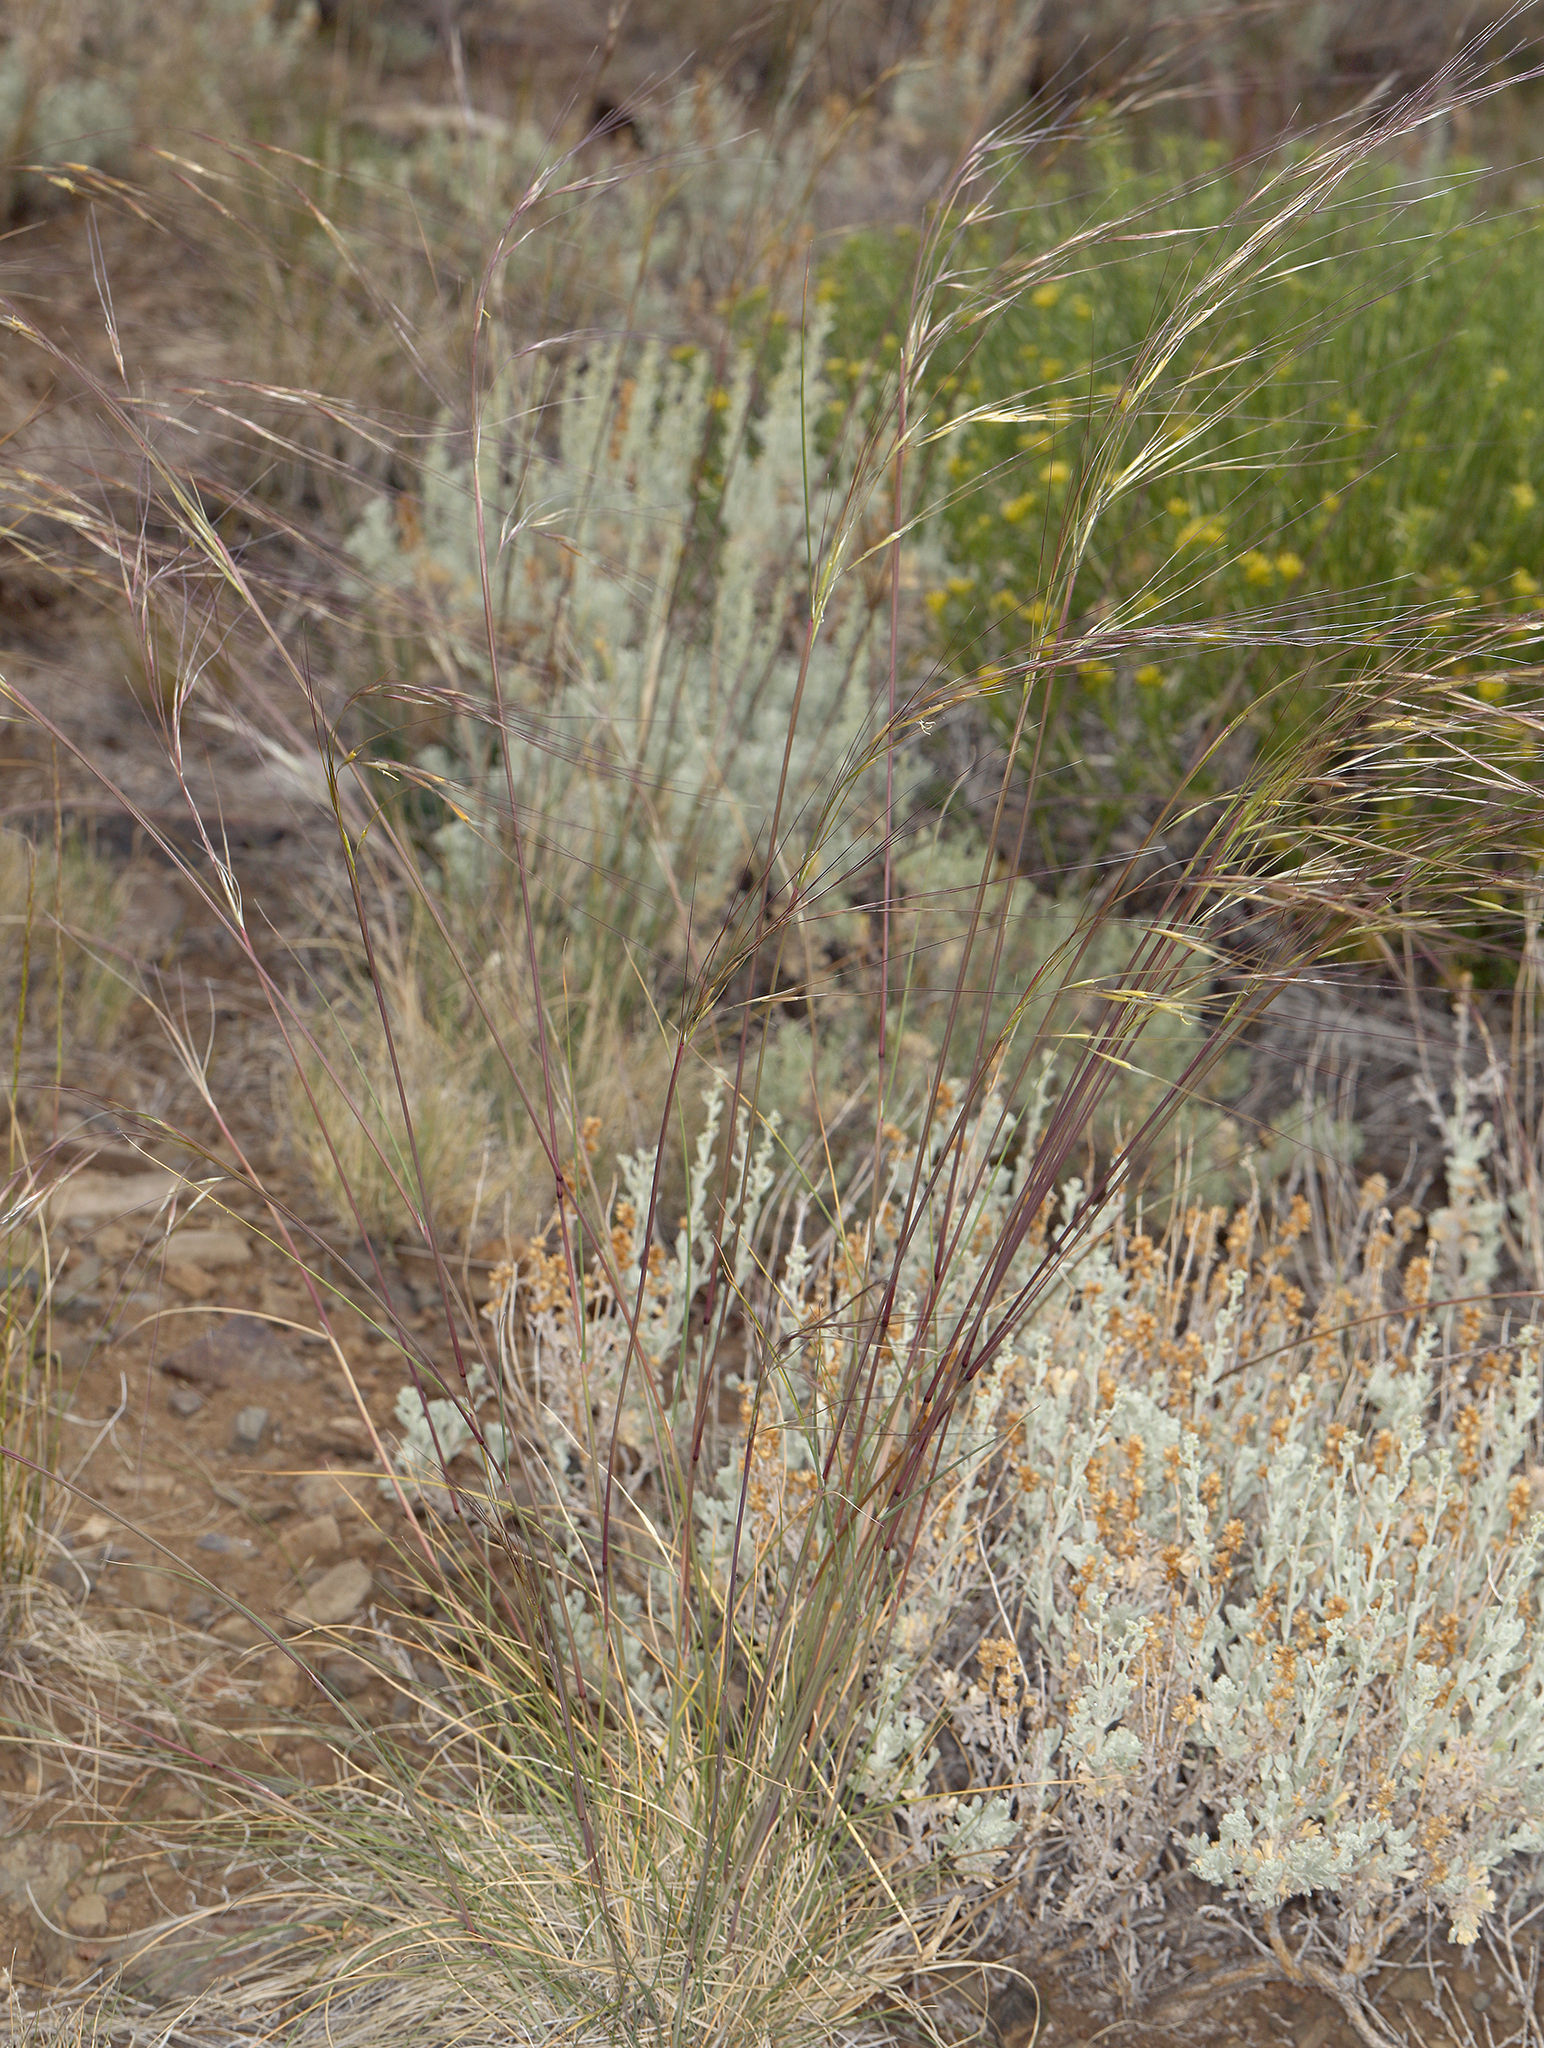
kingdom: Plantae
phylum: Tracheophyta
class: Liliopsida
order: Poales
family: Poaceae
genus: Hesperostipa
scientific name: Hesperostipa comata
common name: Needle-and-thread grass
